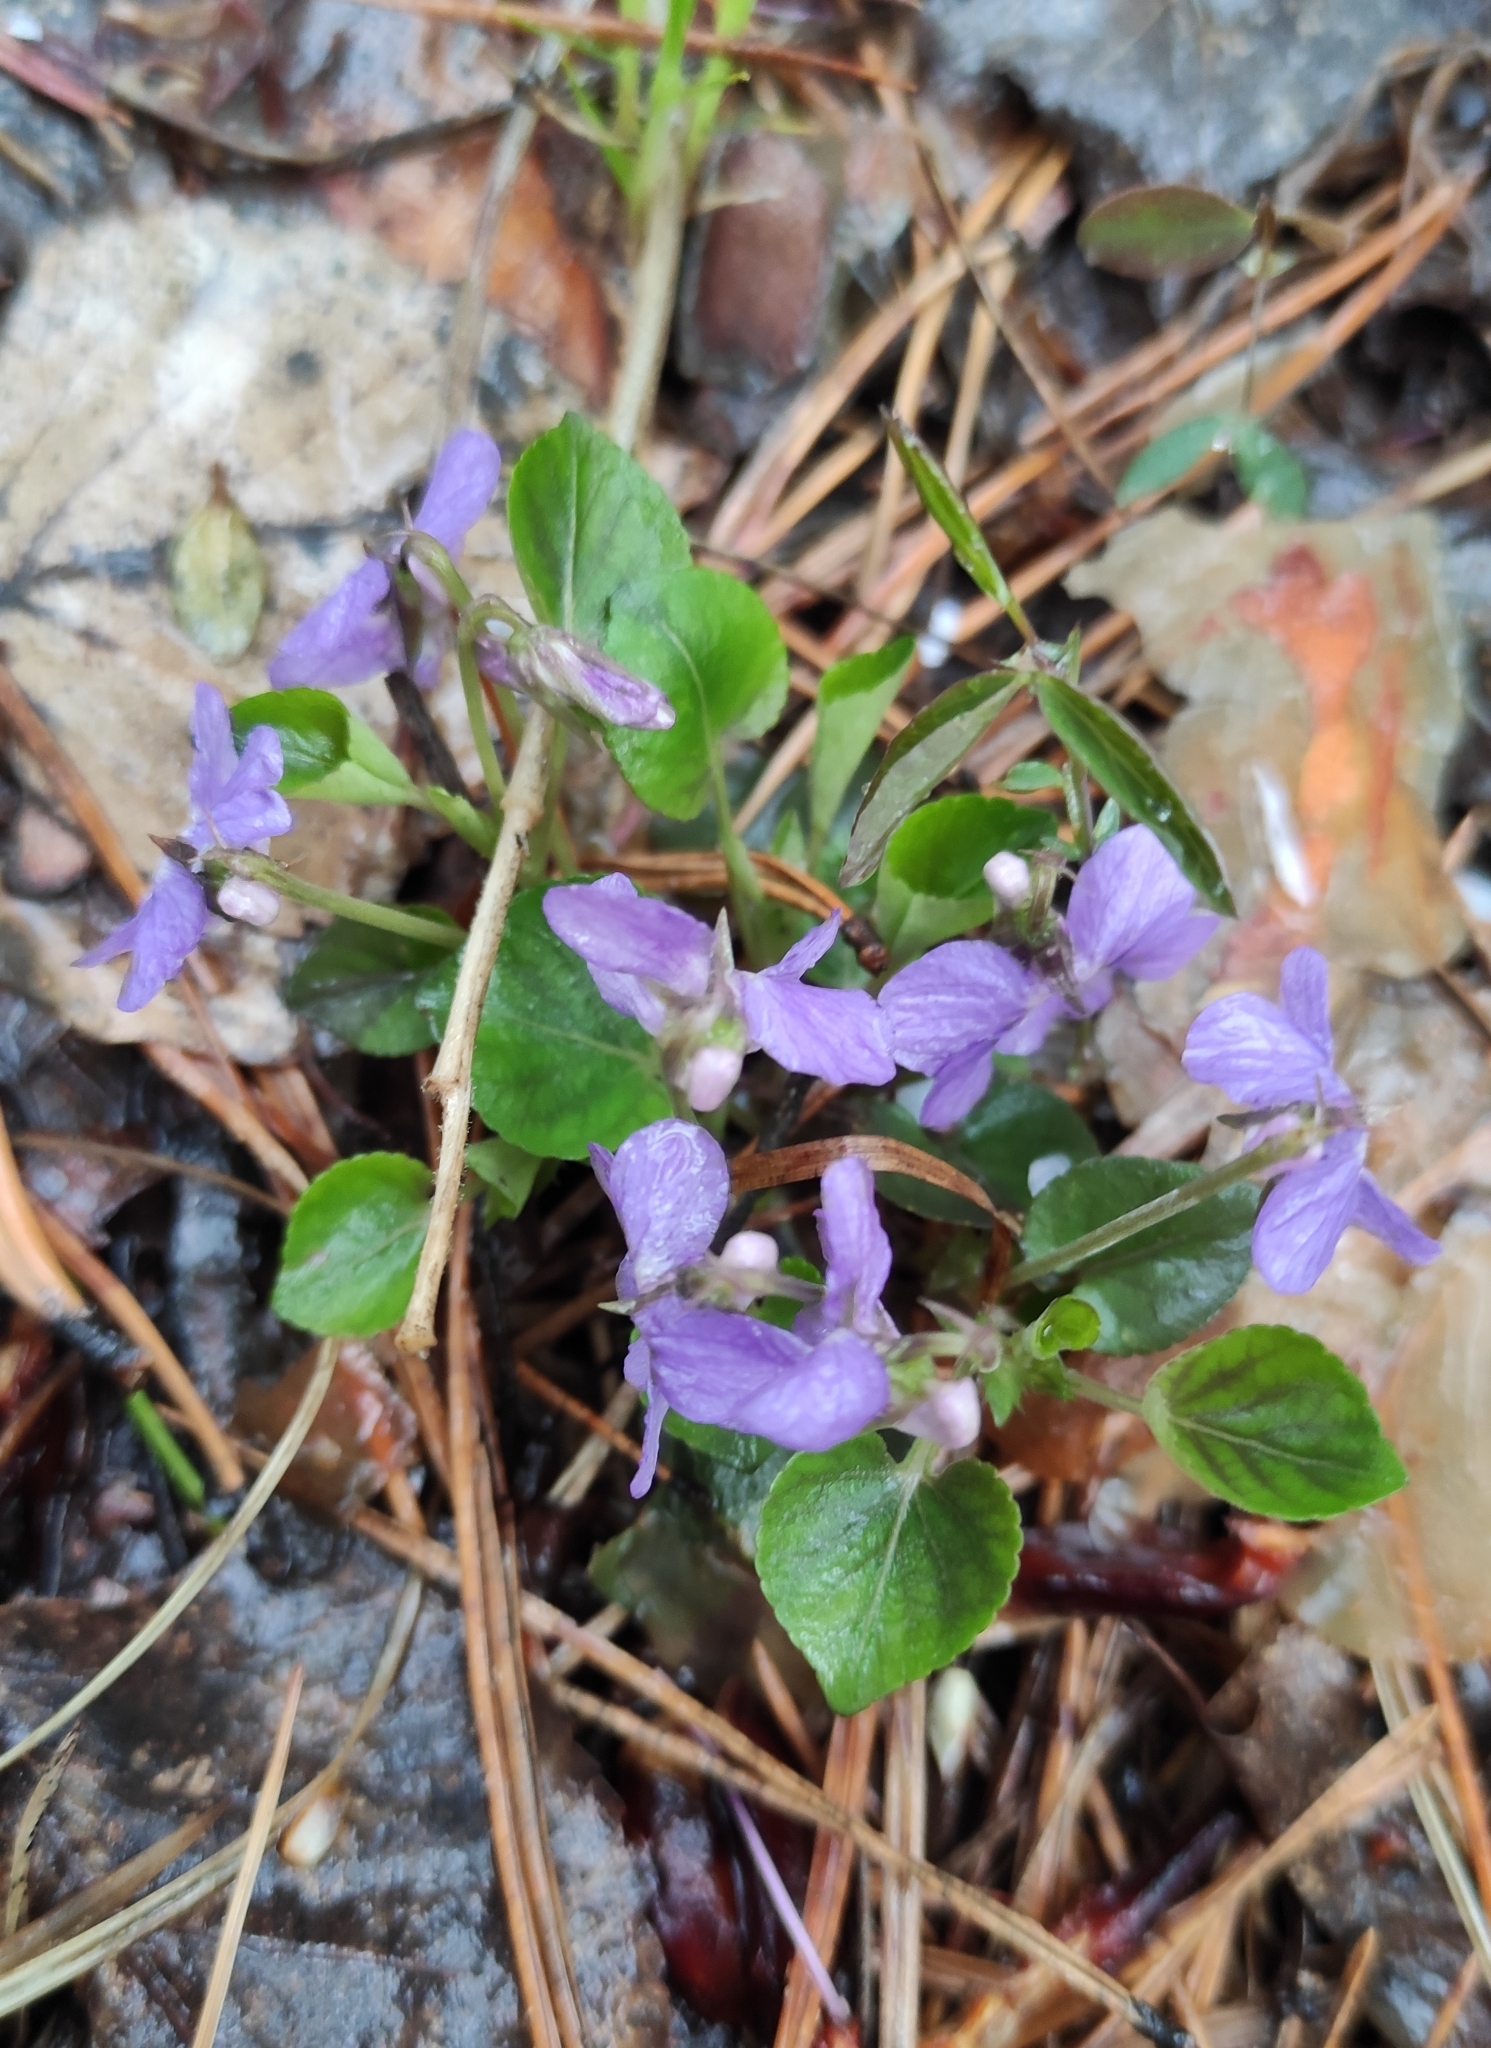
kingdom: Plantae
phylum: Tracheophyta
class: Magnoliopsida
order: Malpighiales
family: Violaceae
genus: Viola
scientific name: Viola rupestris
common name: Teesdale violet
